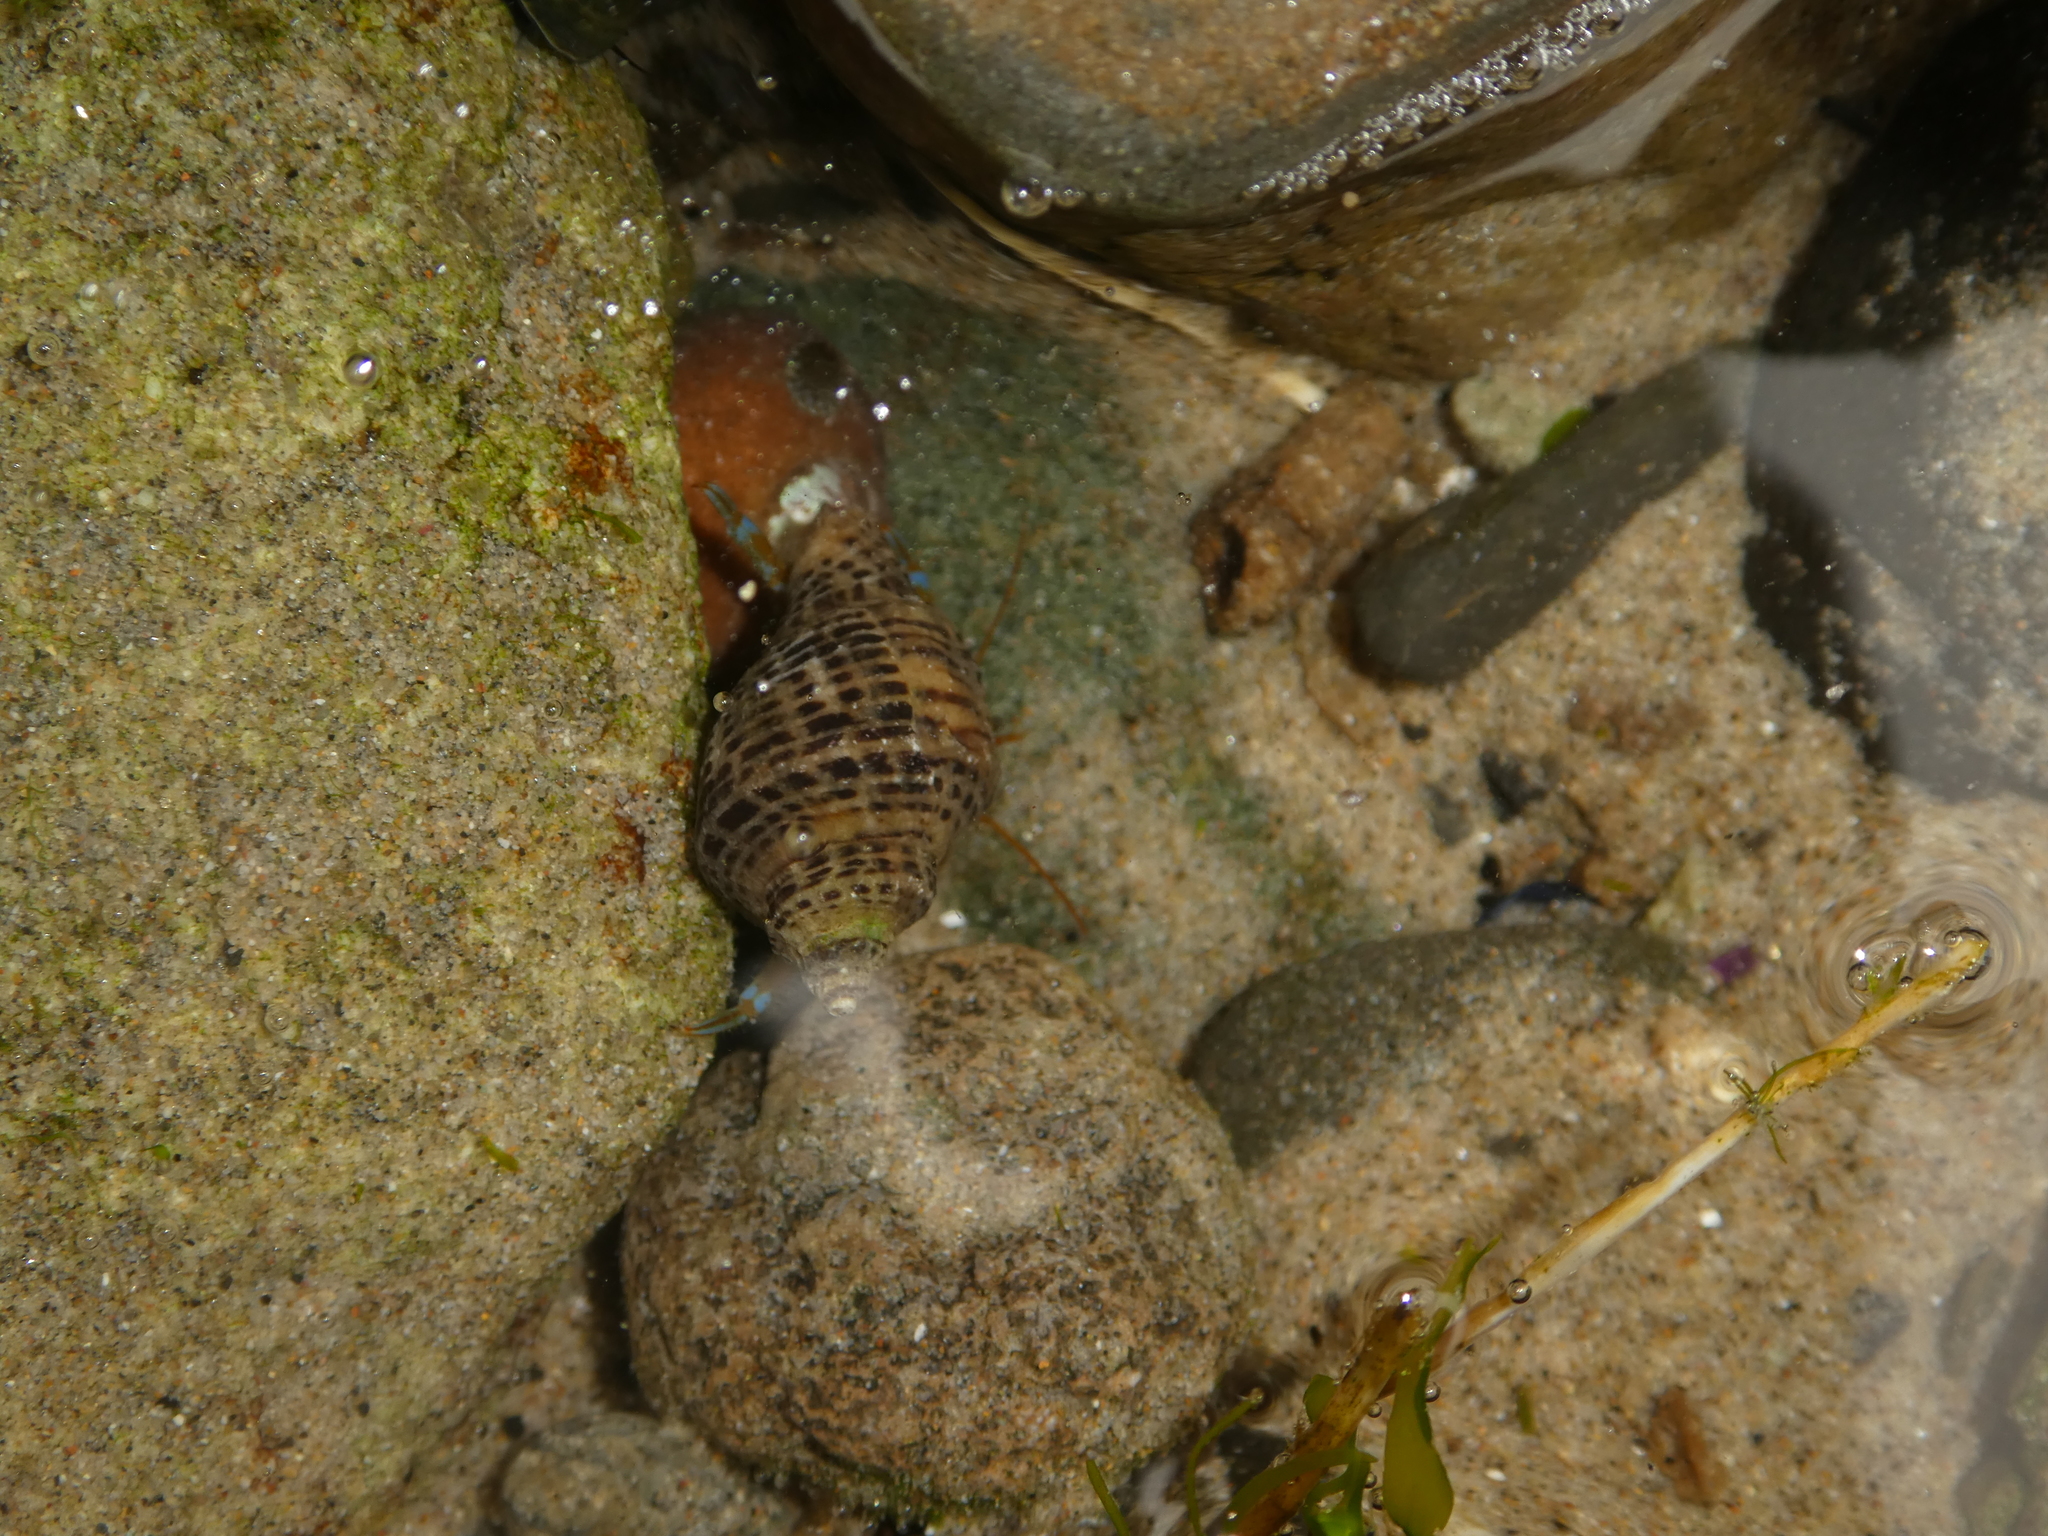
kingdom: Animalia
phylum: Arthropoda
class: Malacostraca
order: Decapoda
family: Paguridae
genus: Pagurus
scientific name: Pagurus samuelis
